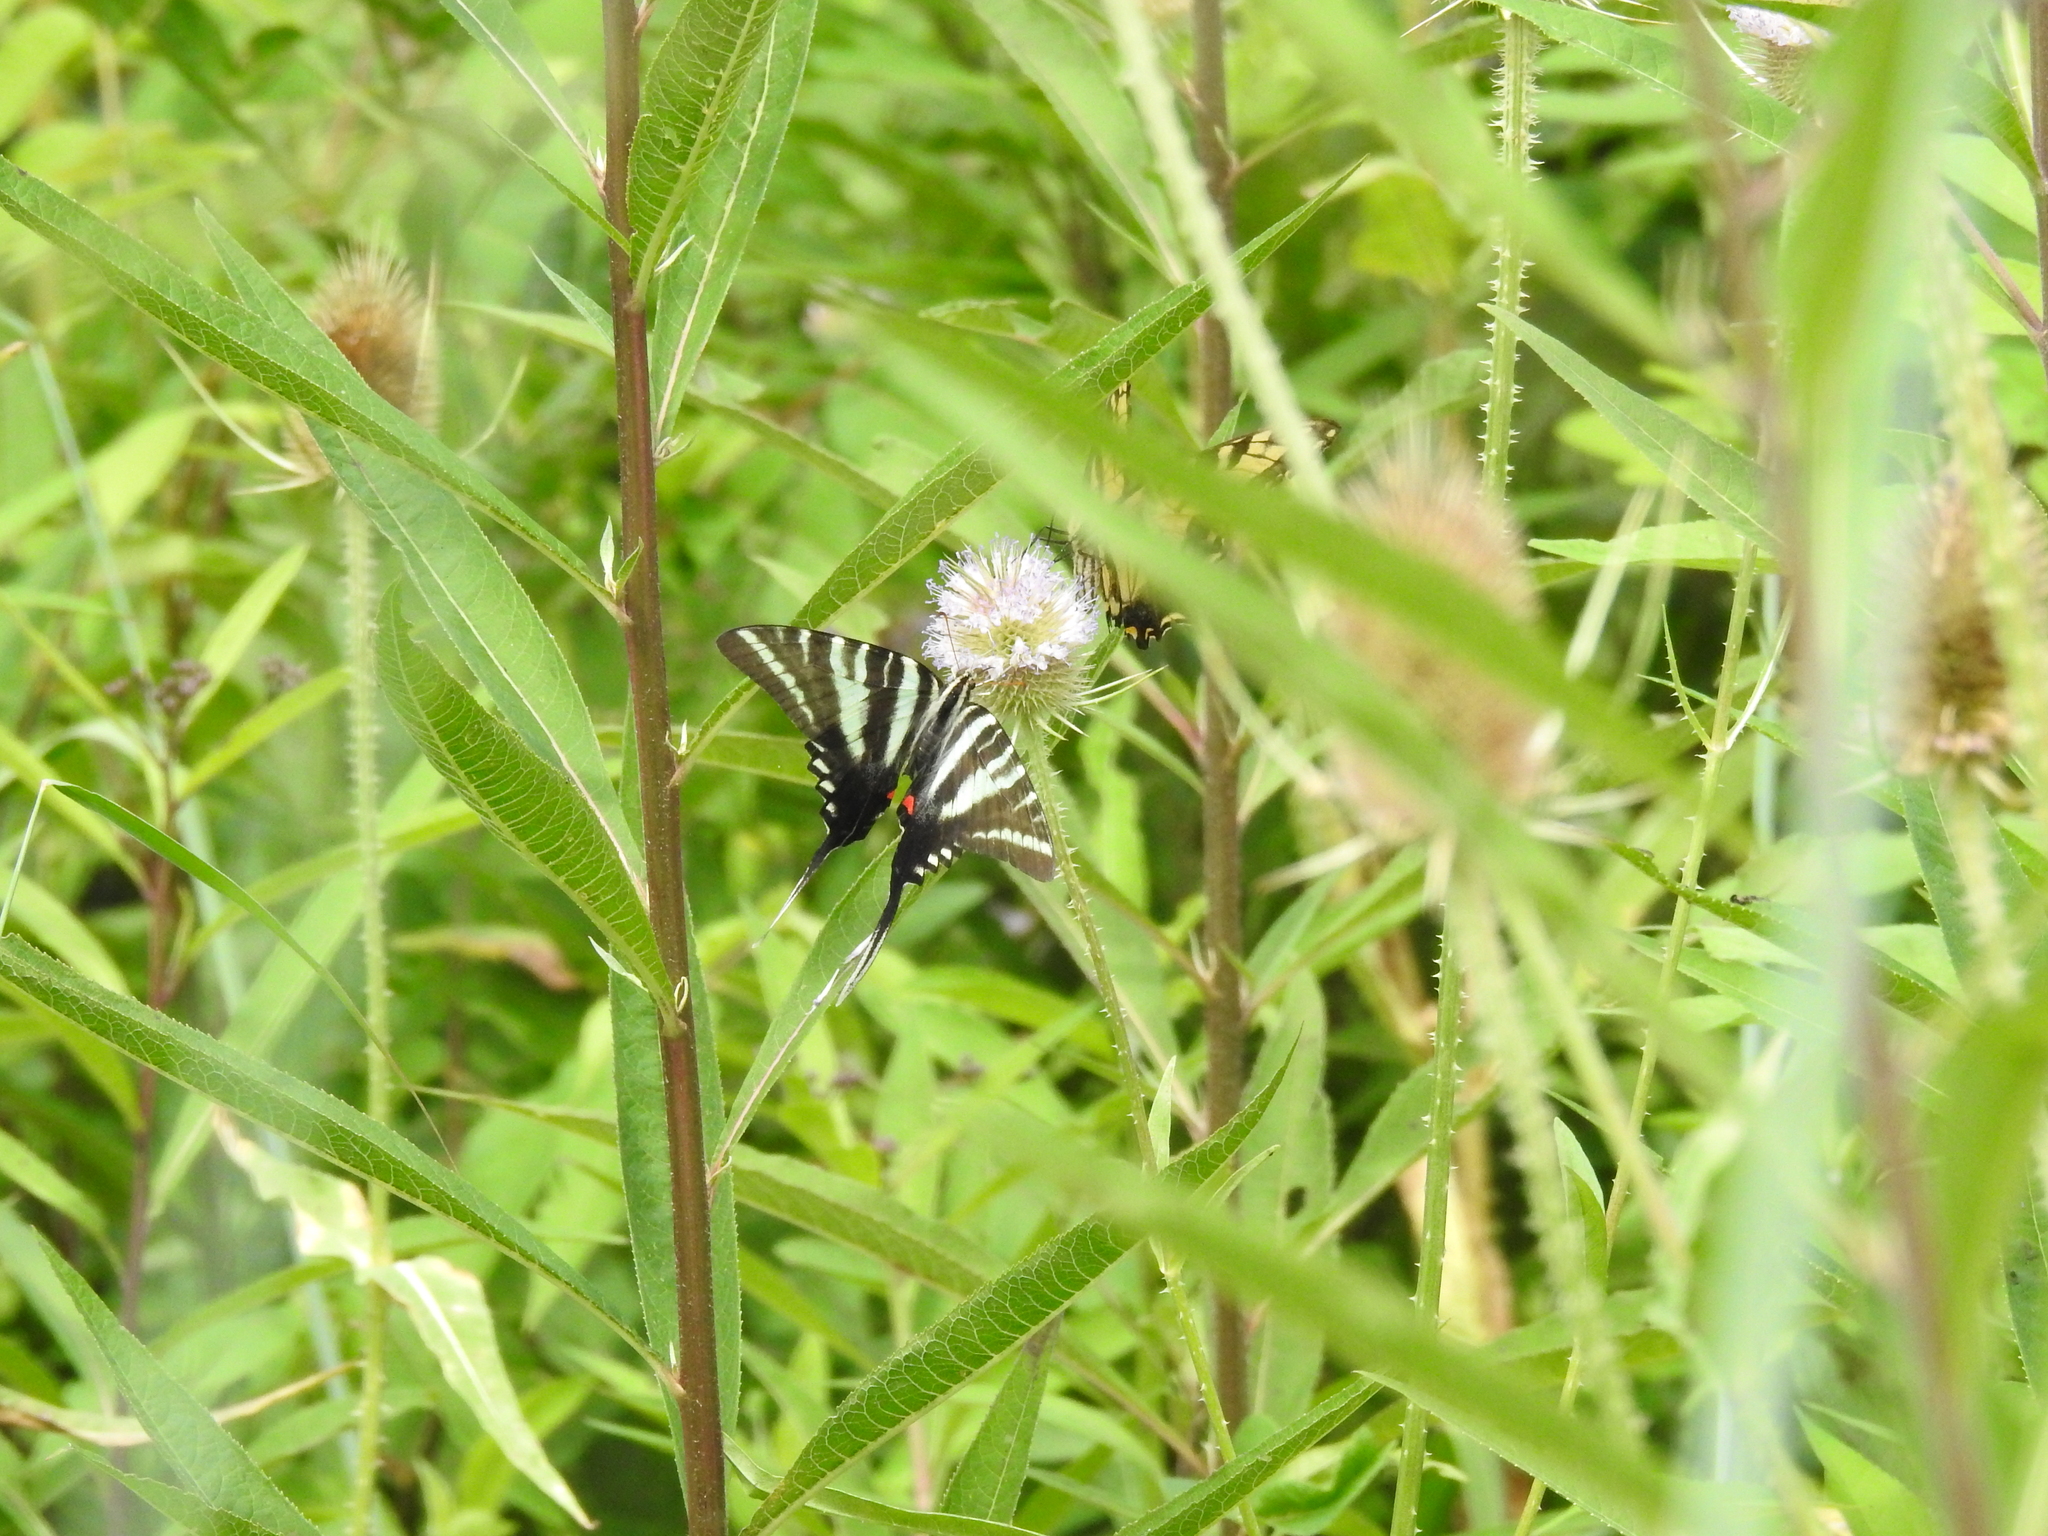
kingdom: Animalia
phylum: Arthropoda
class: Insecta
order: Lepidoptera
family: Papilionidae
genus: Protographium
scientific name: Protographium marcellus
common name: Zebra swallowtail
